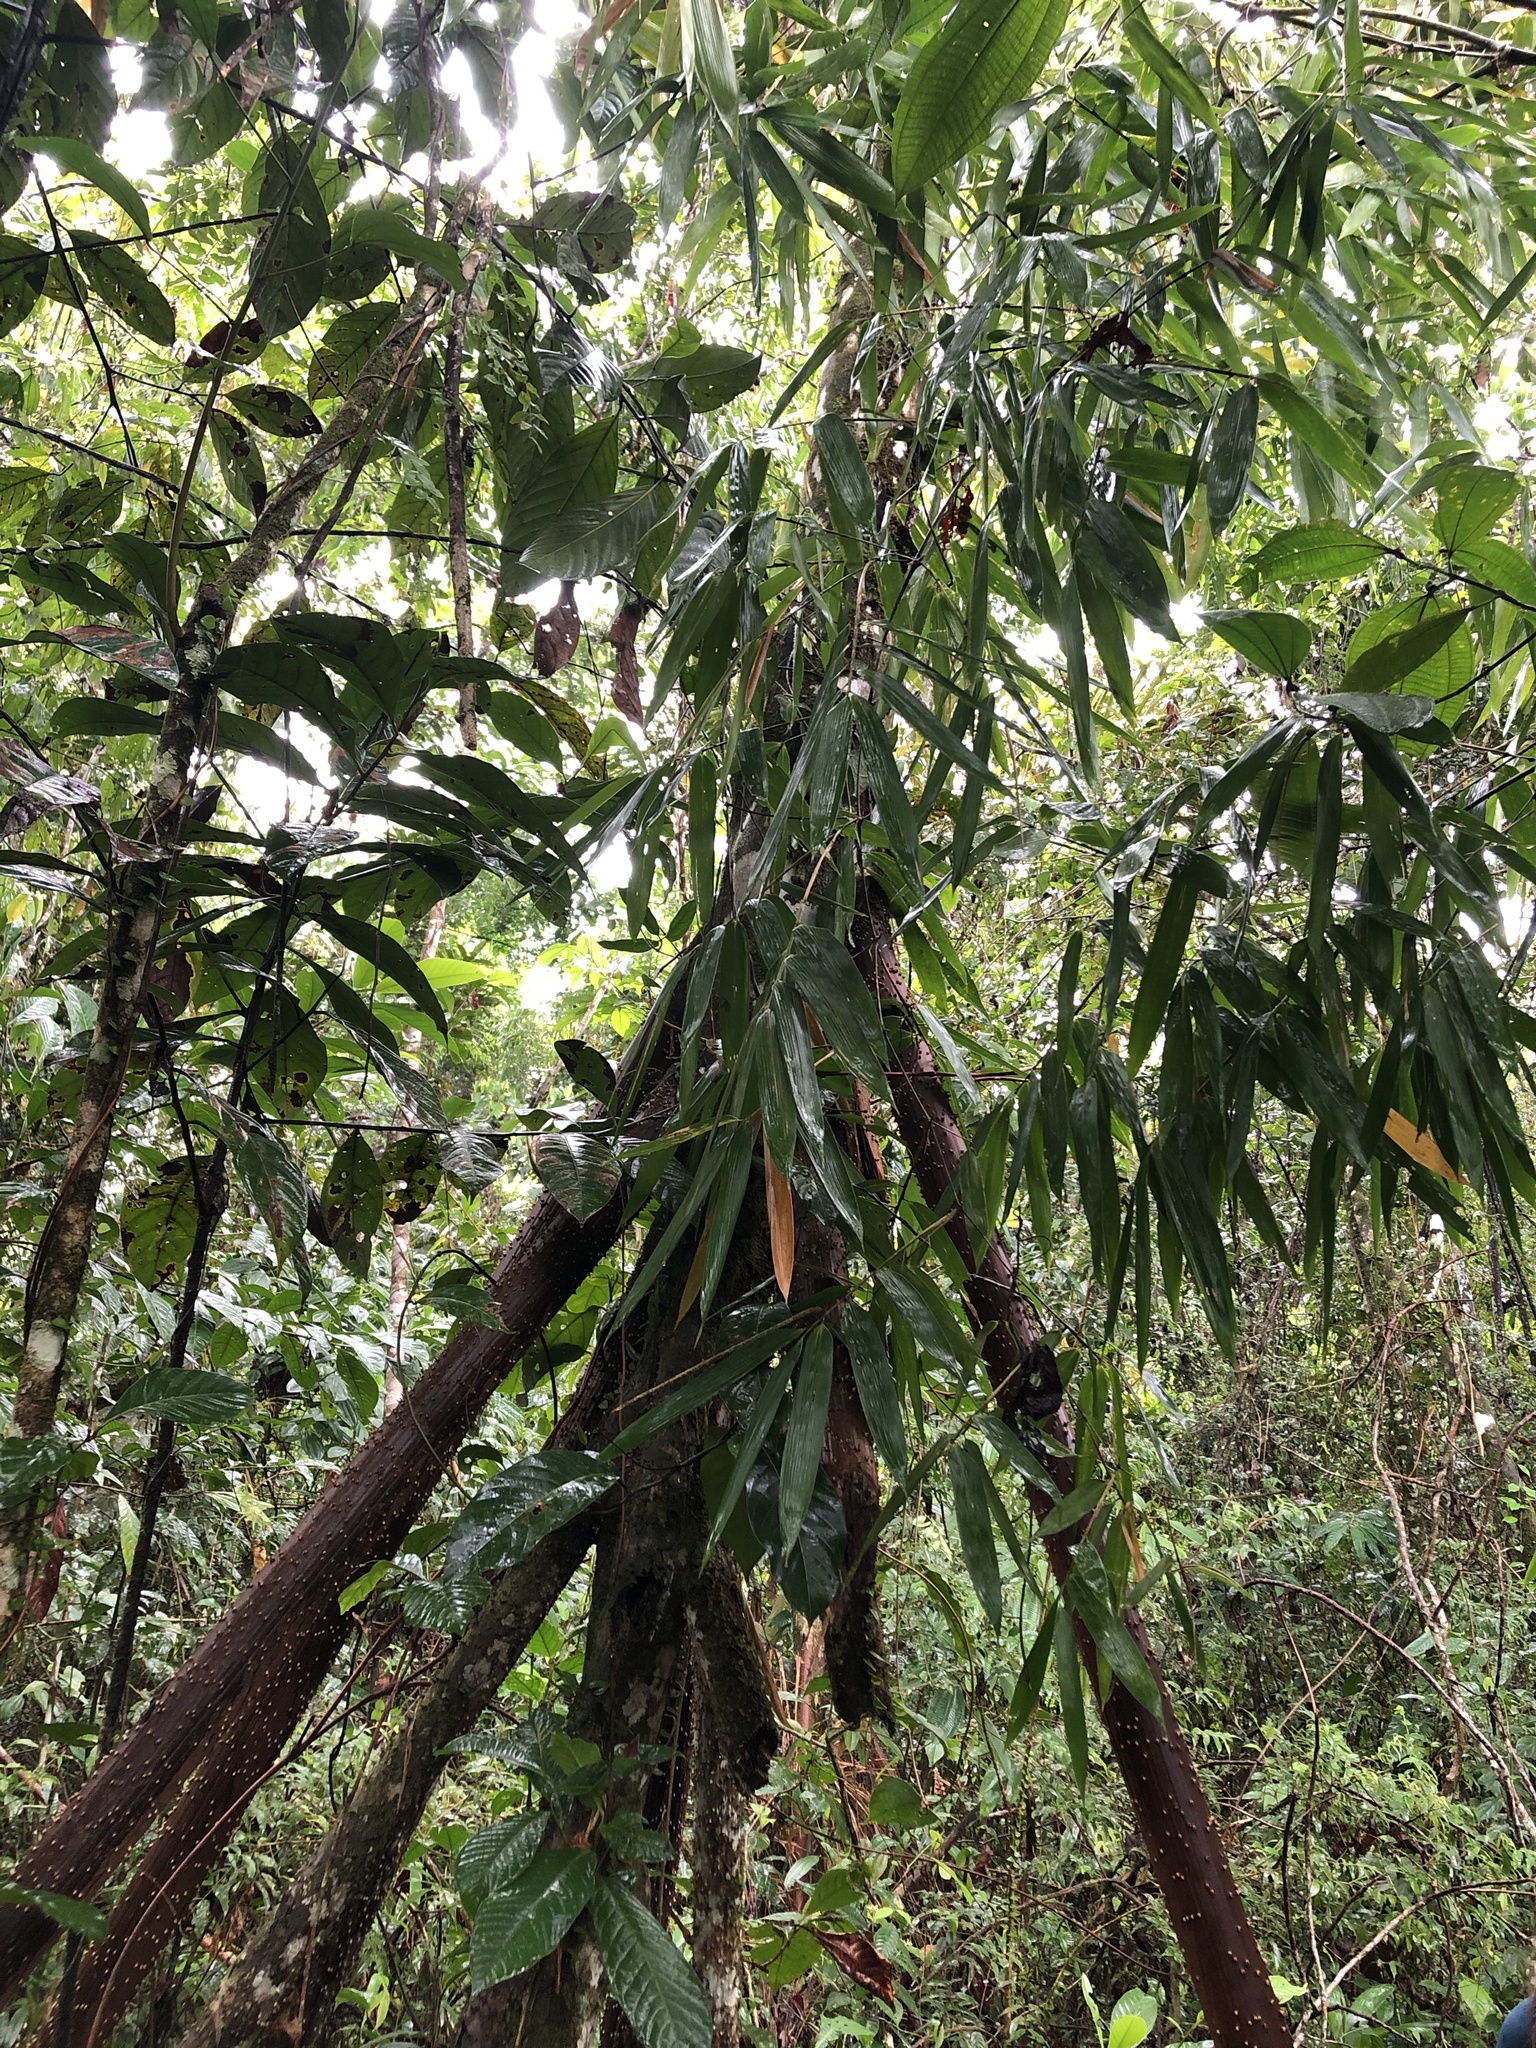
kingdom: Plantae
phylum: Tracheophyta
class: Liliopsida
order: Arecales
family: Arecaceae
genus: Socratea
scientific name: Socratea exorrhiza
